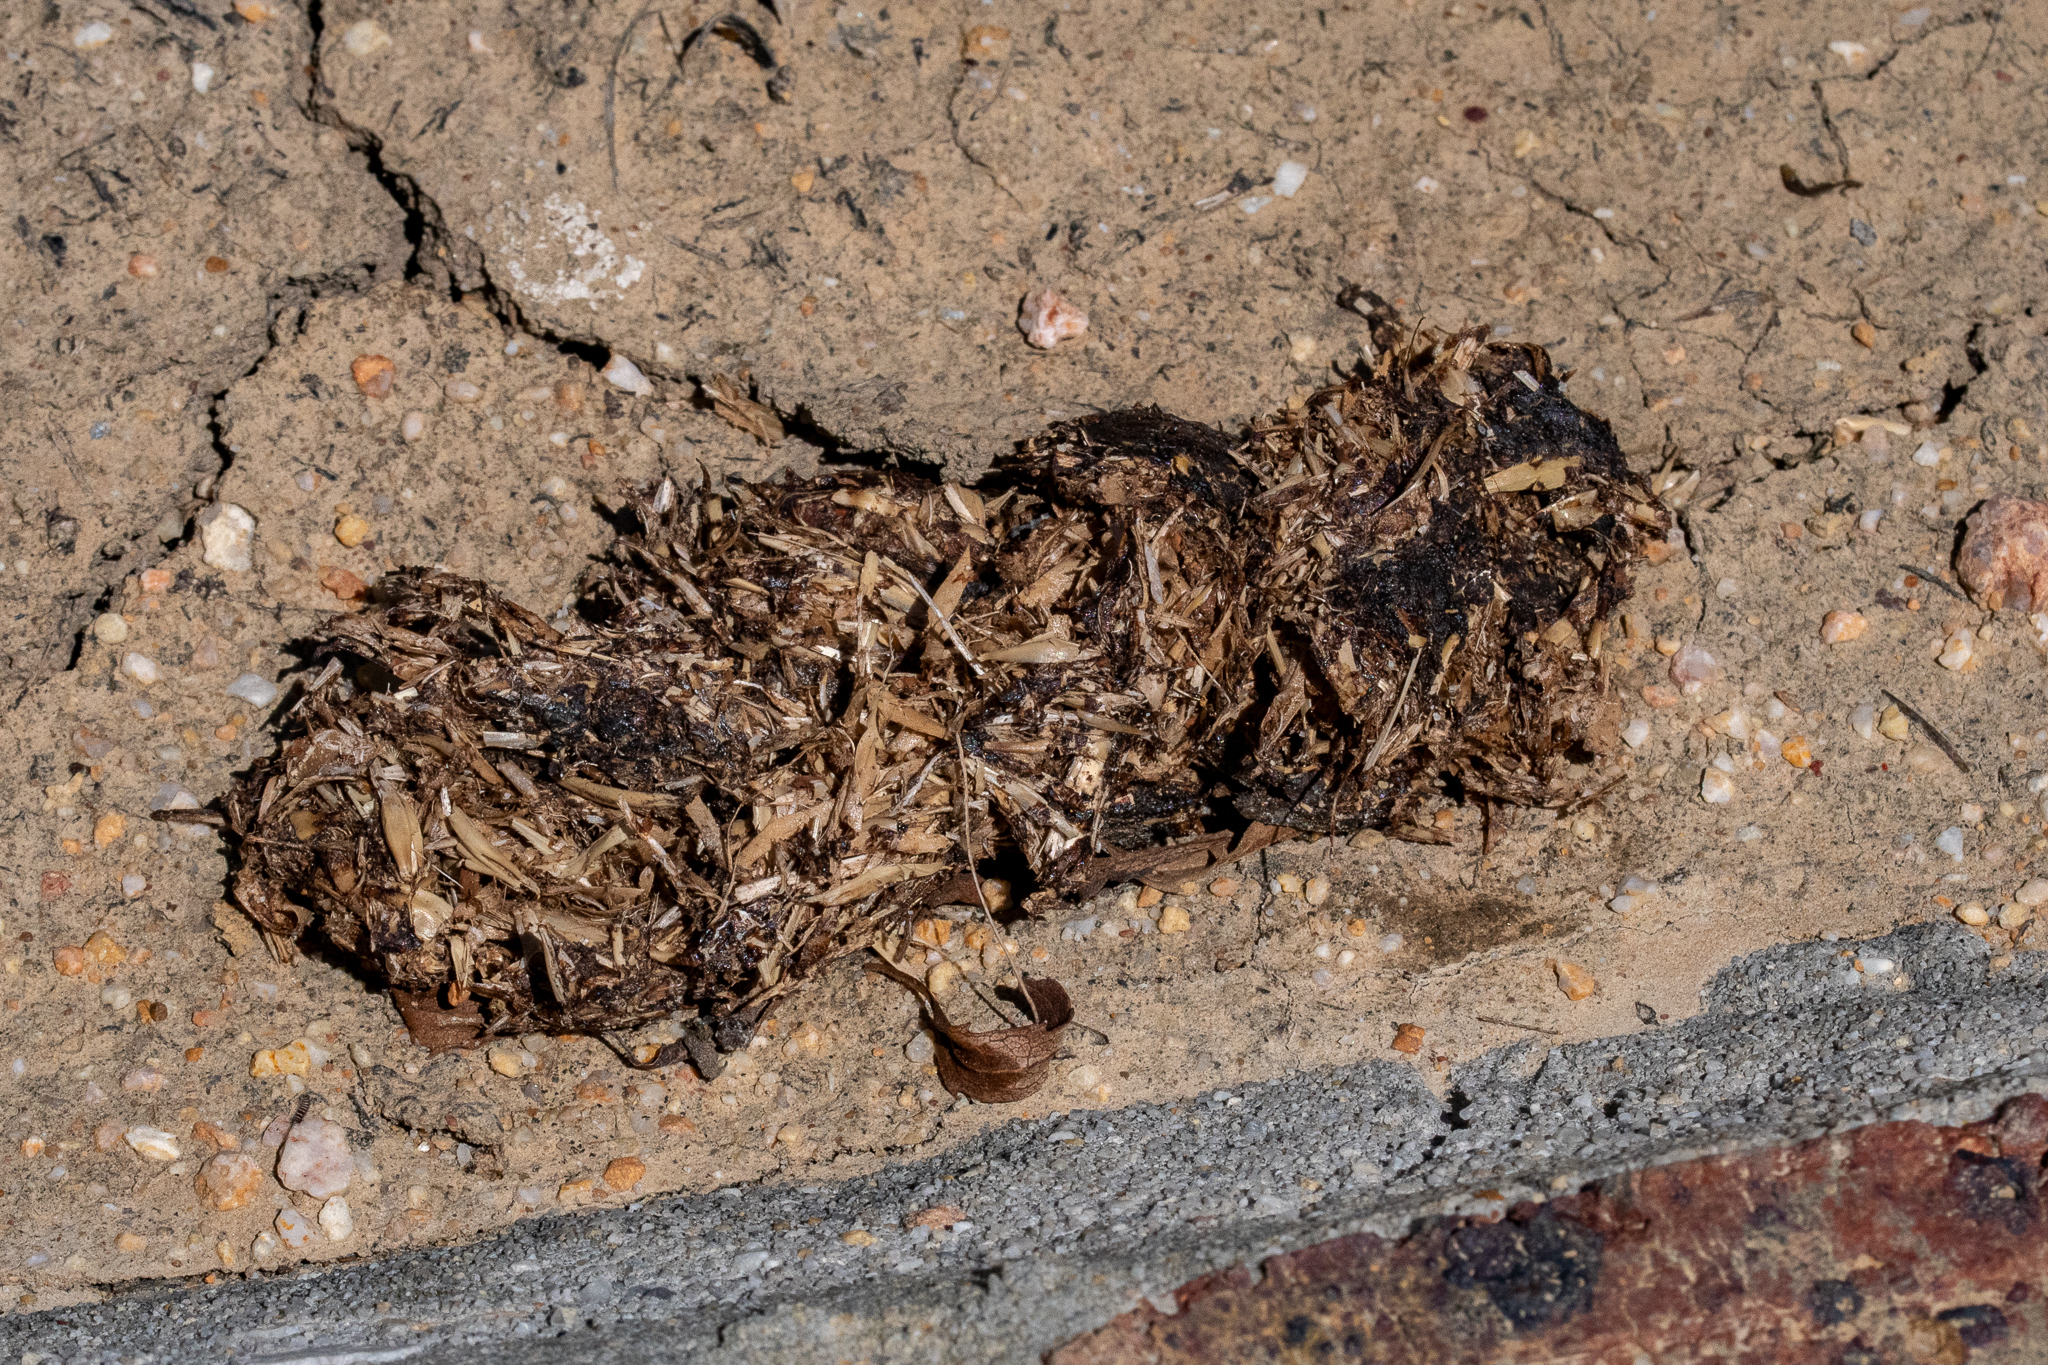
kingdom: Animalia
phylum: Chordata
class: Mammalia
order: Rodentia
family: Hystricidae
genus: Hystrix
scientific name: Hystrix africaeaustralis
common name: Cape porcupine
